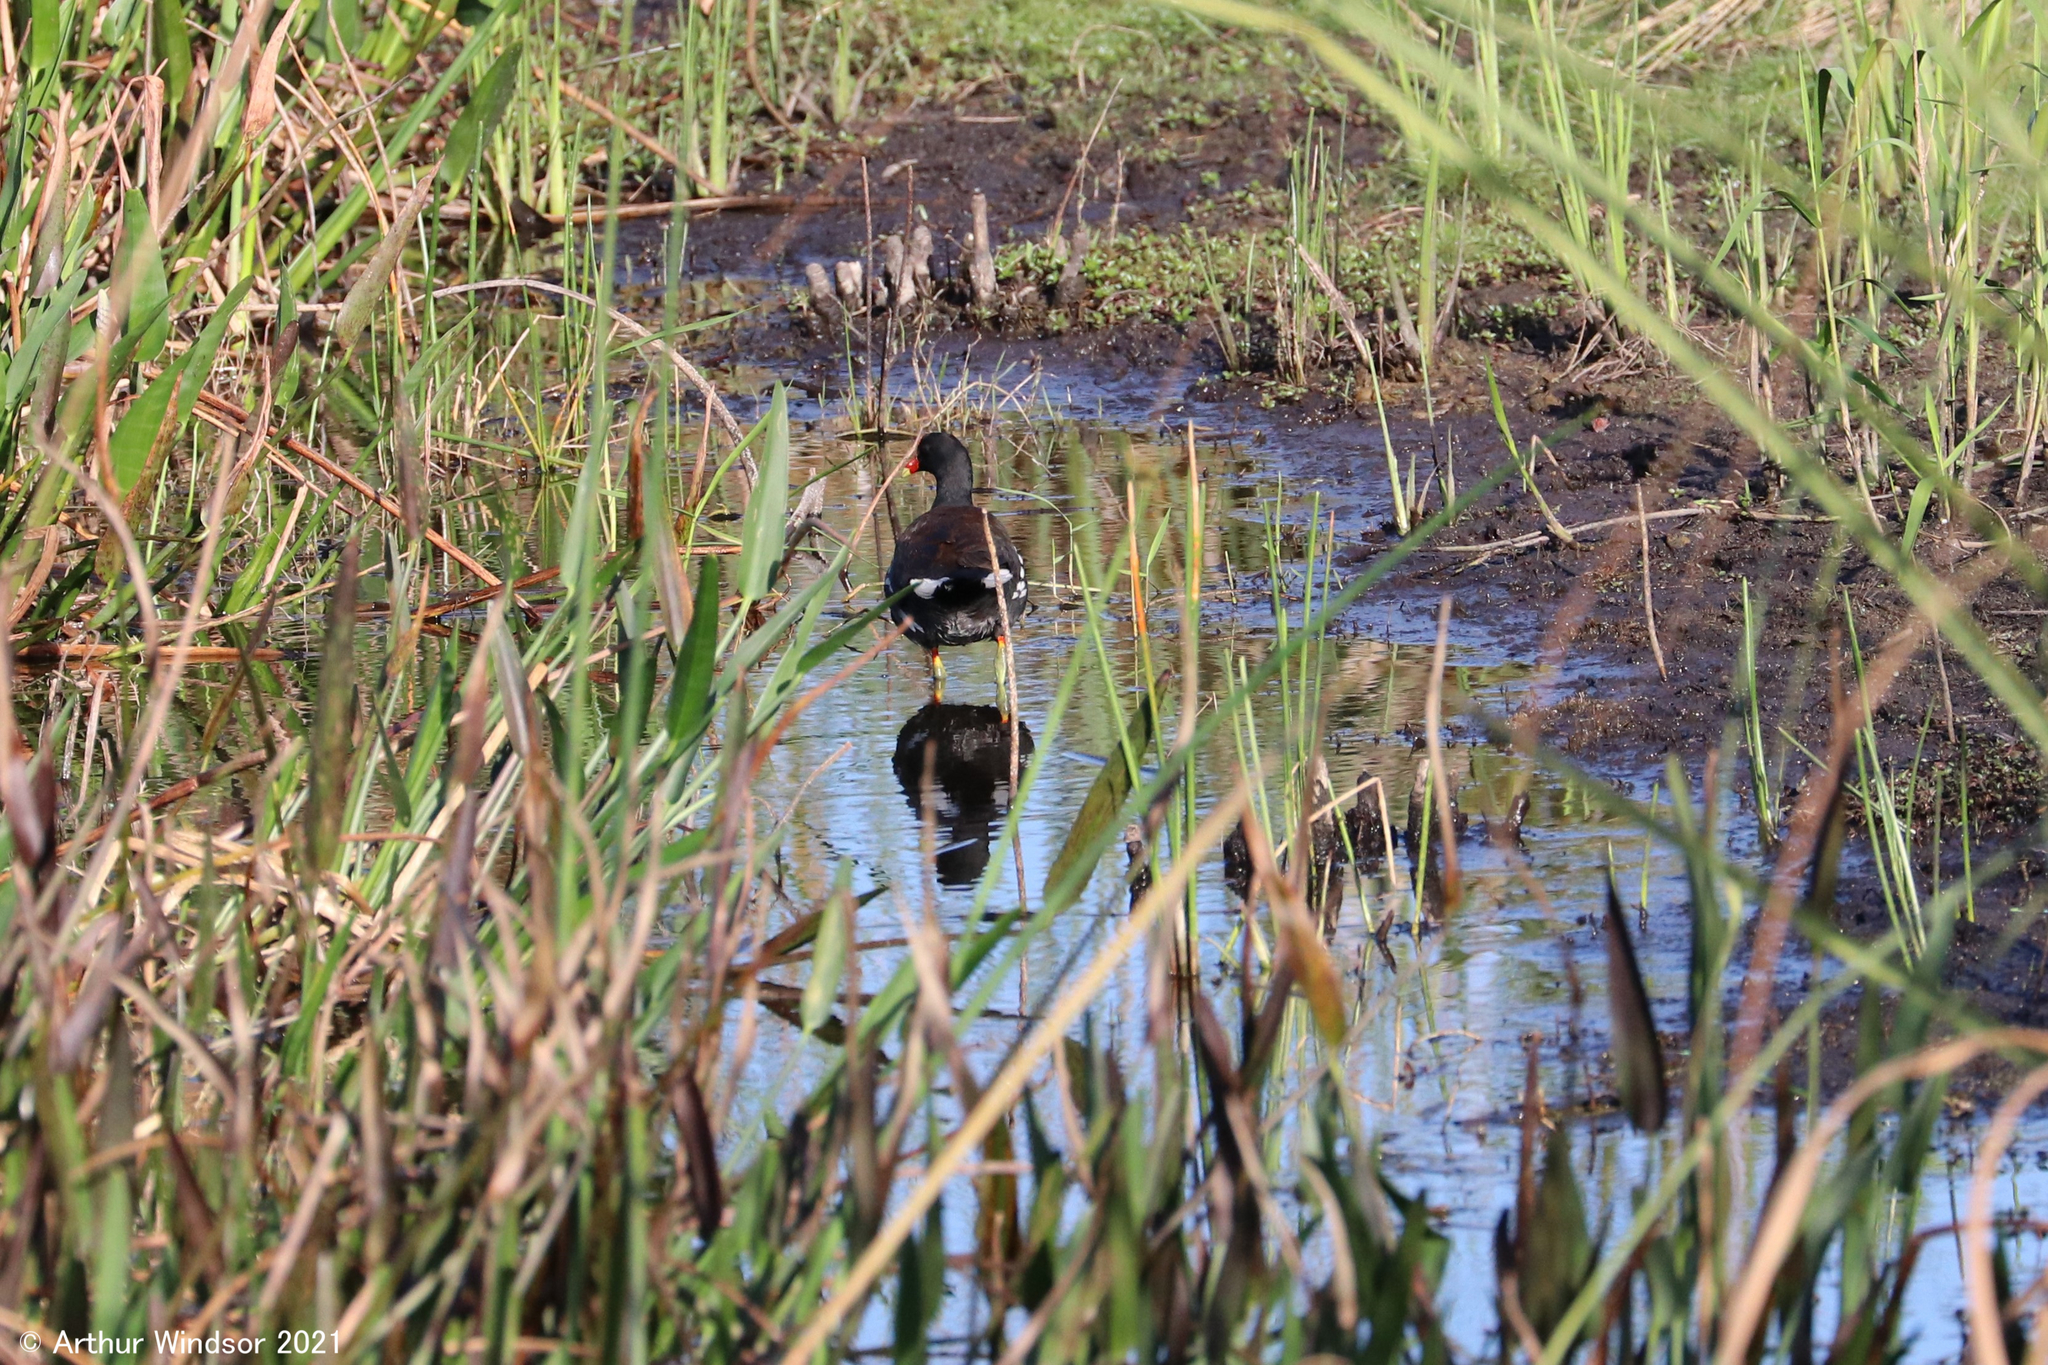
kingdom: Animalia
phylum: Chordata
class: Aves
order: Gruiformes
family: Rallidae
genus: Gallinula
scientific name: Gallinula chloropus
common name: Common moorhen
